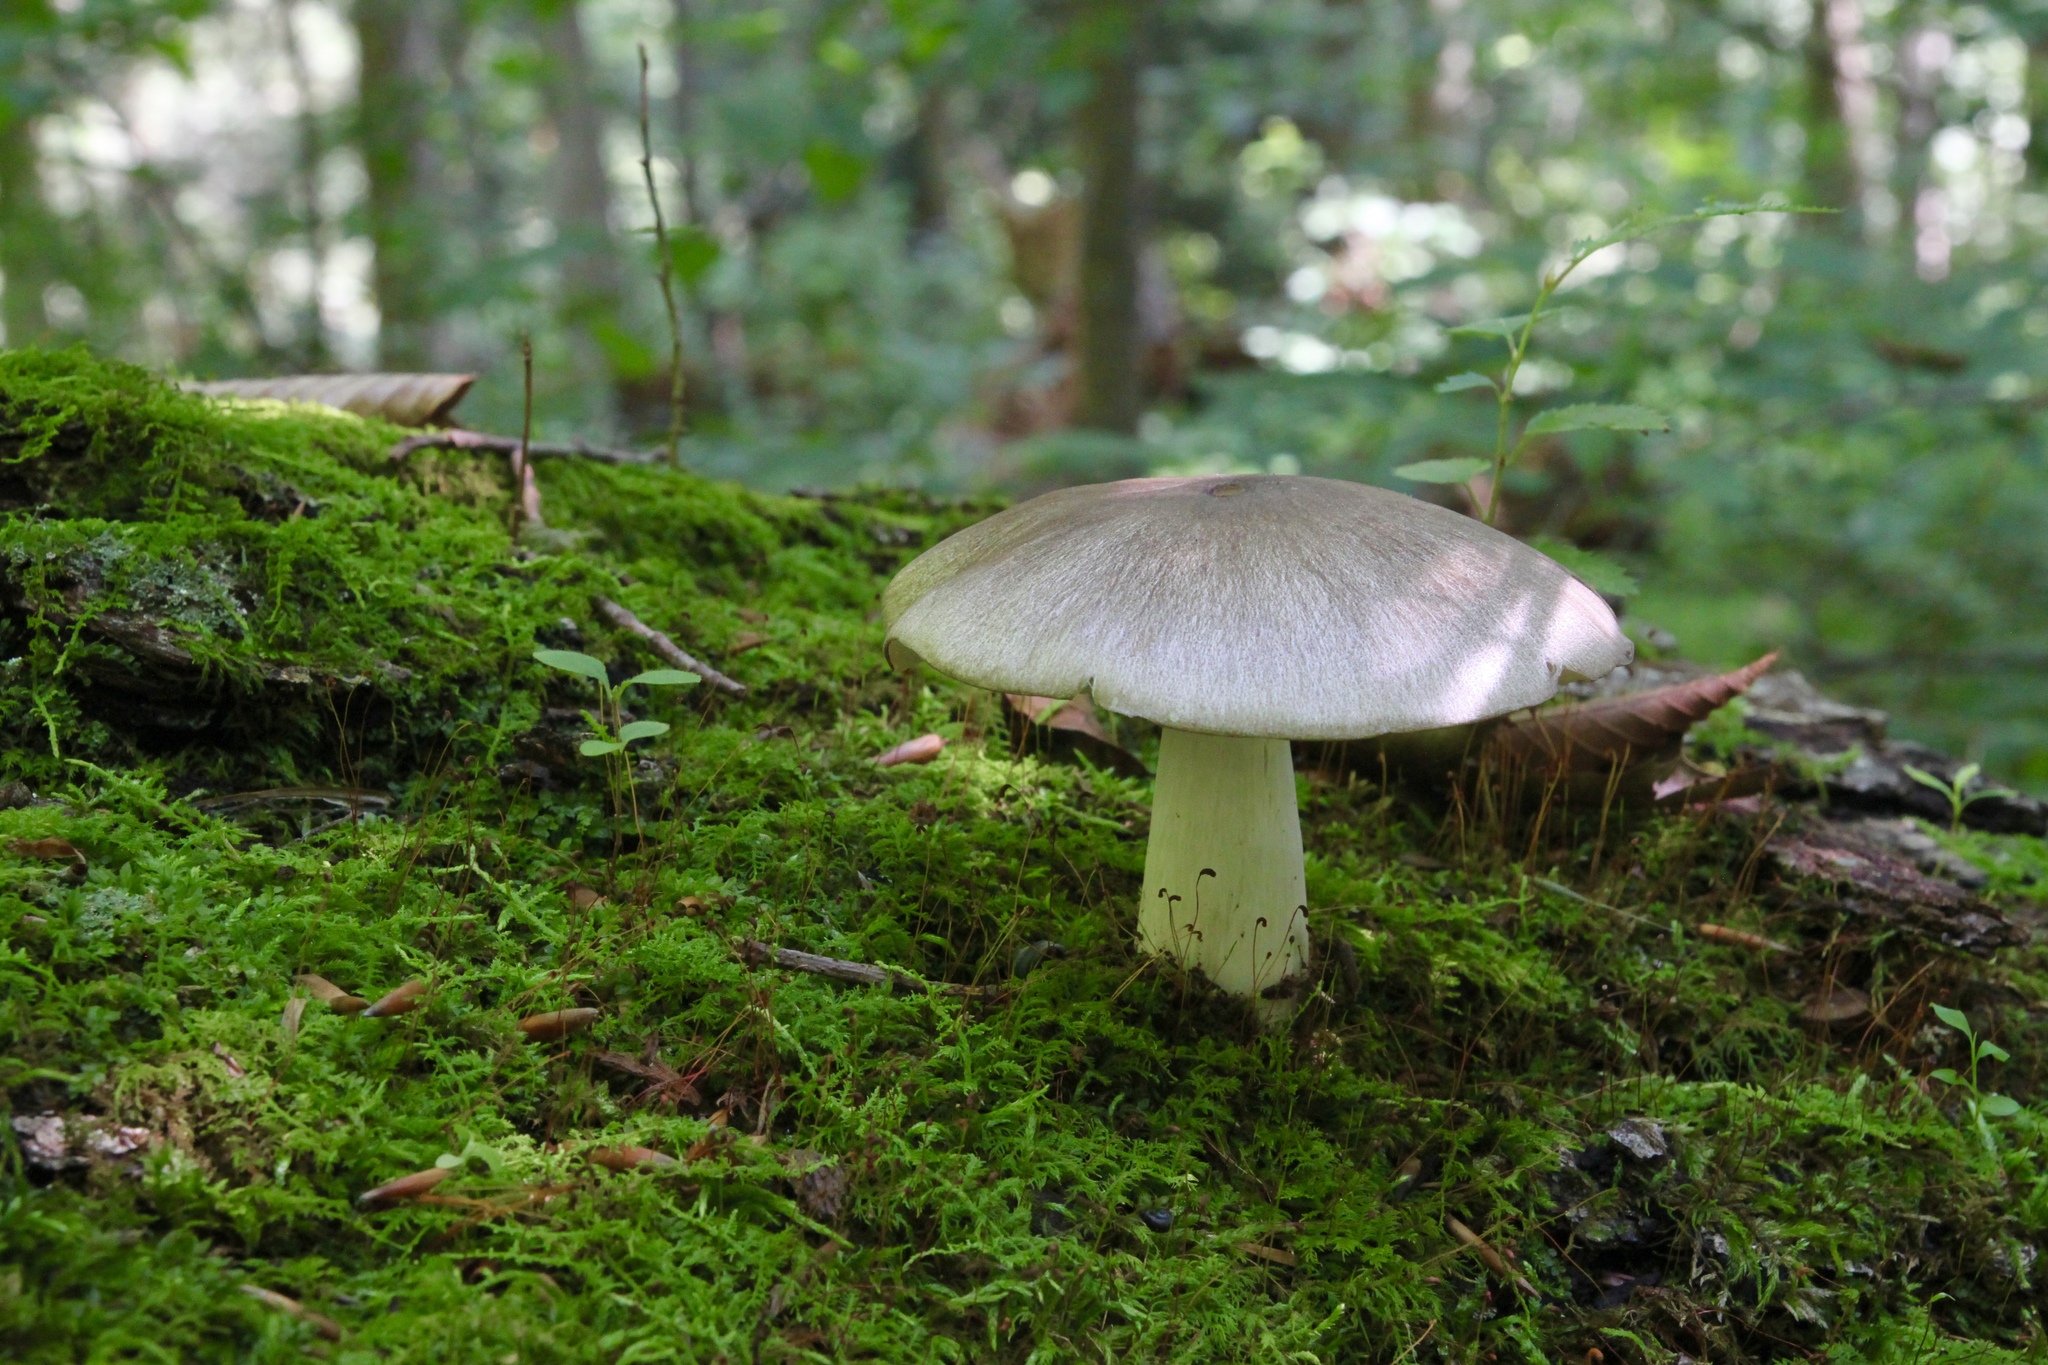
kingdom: Fungi
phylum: Basidiomycota
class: Agaricomycetes
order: Agaricales
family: Tricholomataceae
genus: Megacollybia
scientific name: Megacollybia rodmanii
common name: Eastern american platterful mushroom
